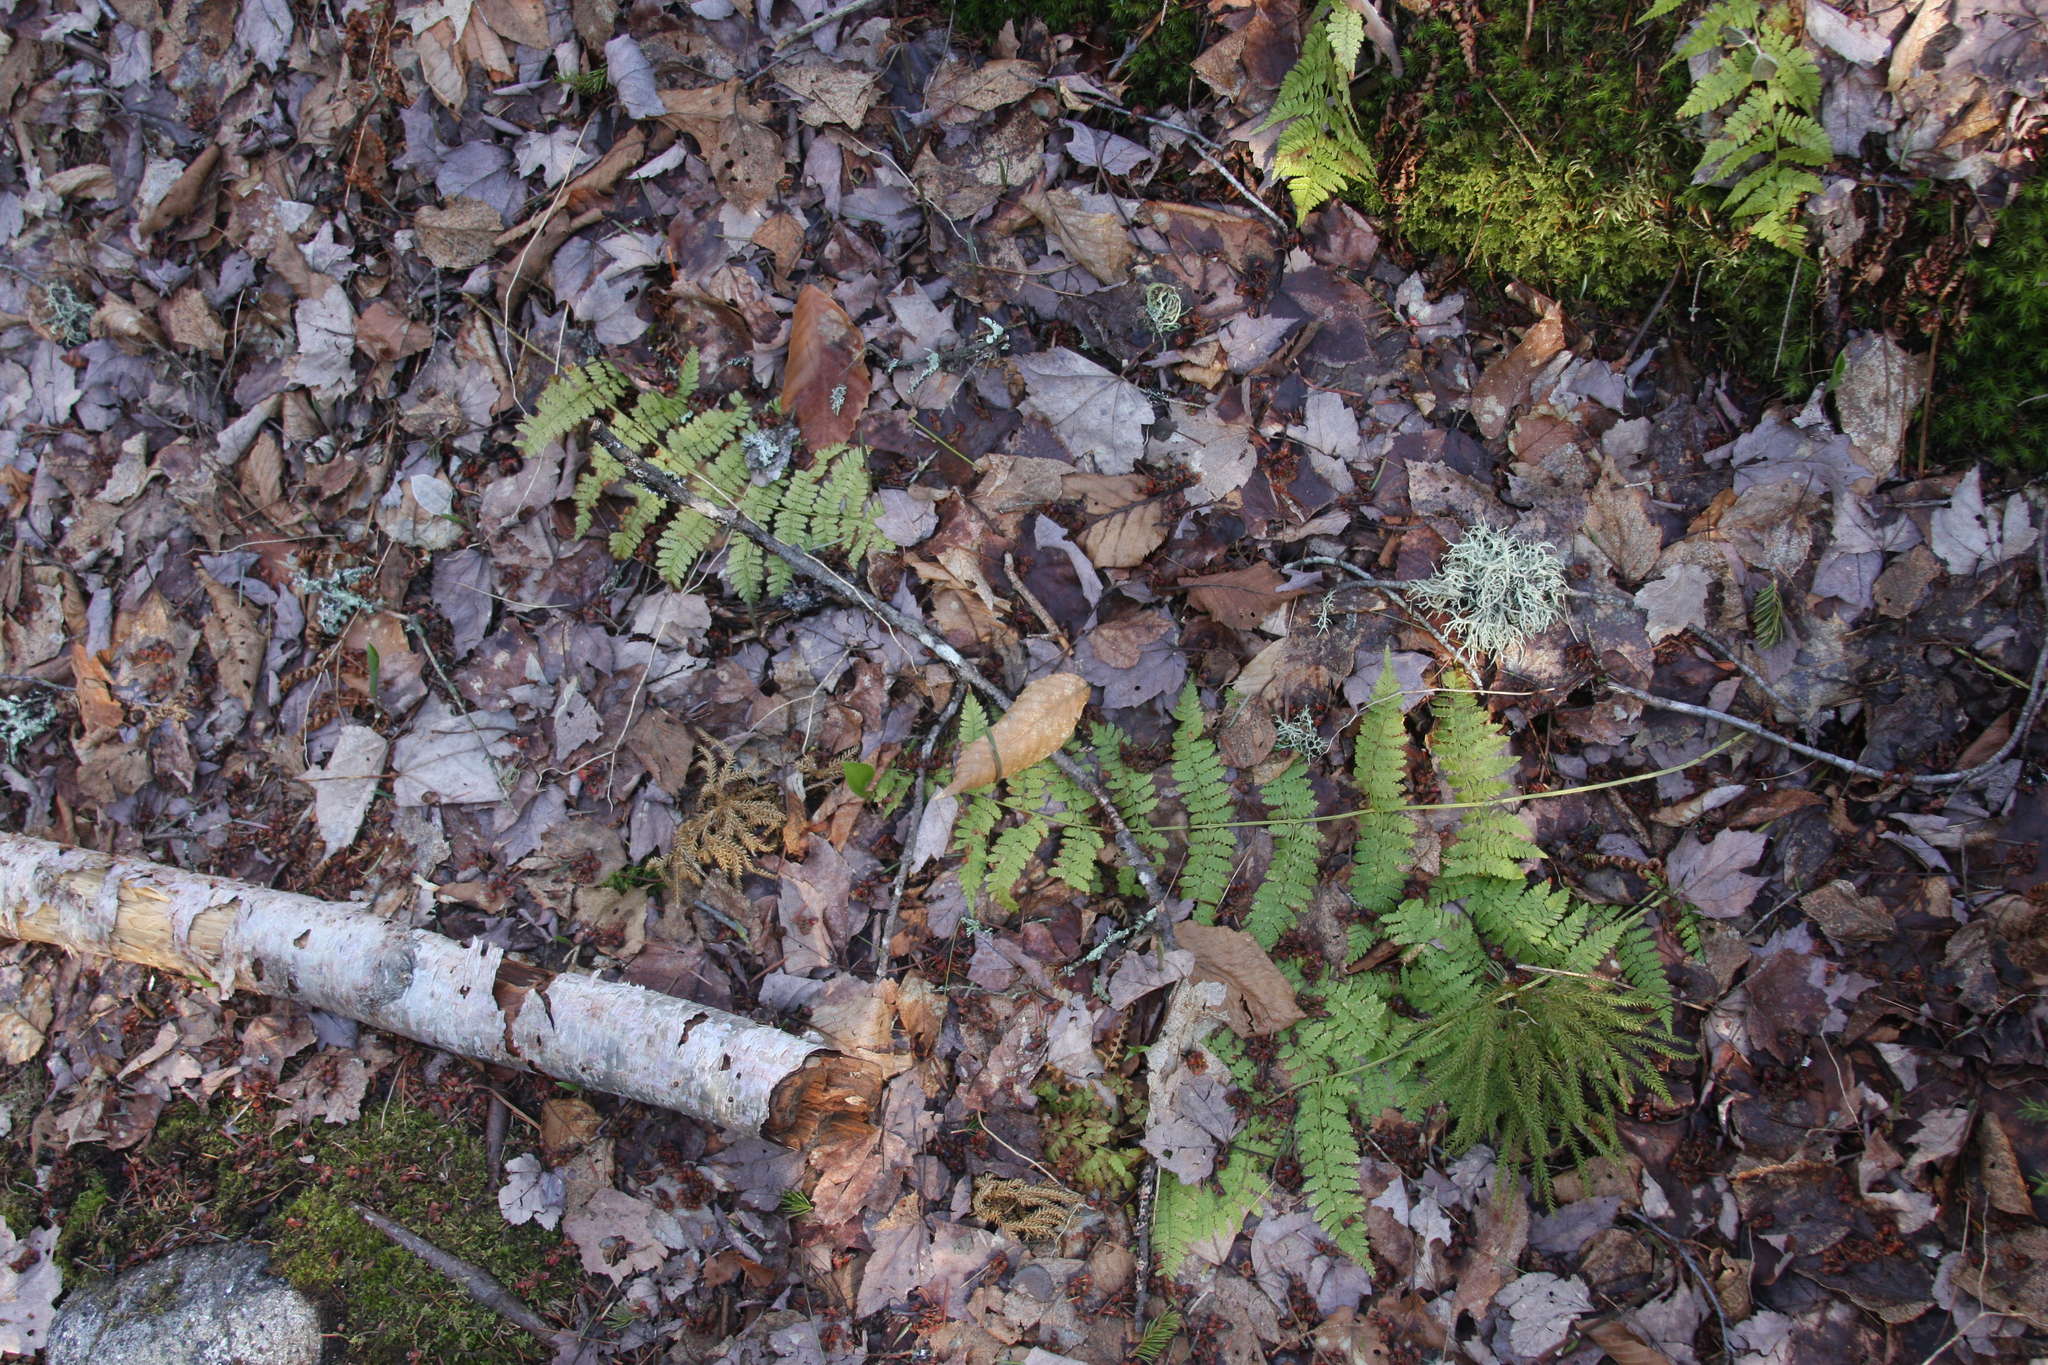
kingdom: Plantae
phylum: Tracheophyta
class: Polypodiopsida
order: Polypodiales
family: Dryopteridaceae
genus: Dryopteris
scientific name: Dryopteris intermedia
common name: Evergreen wood fern
